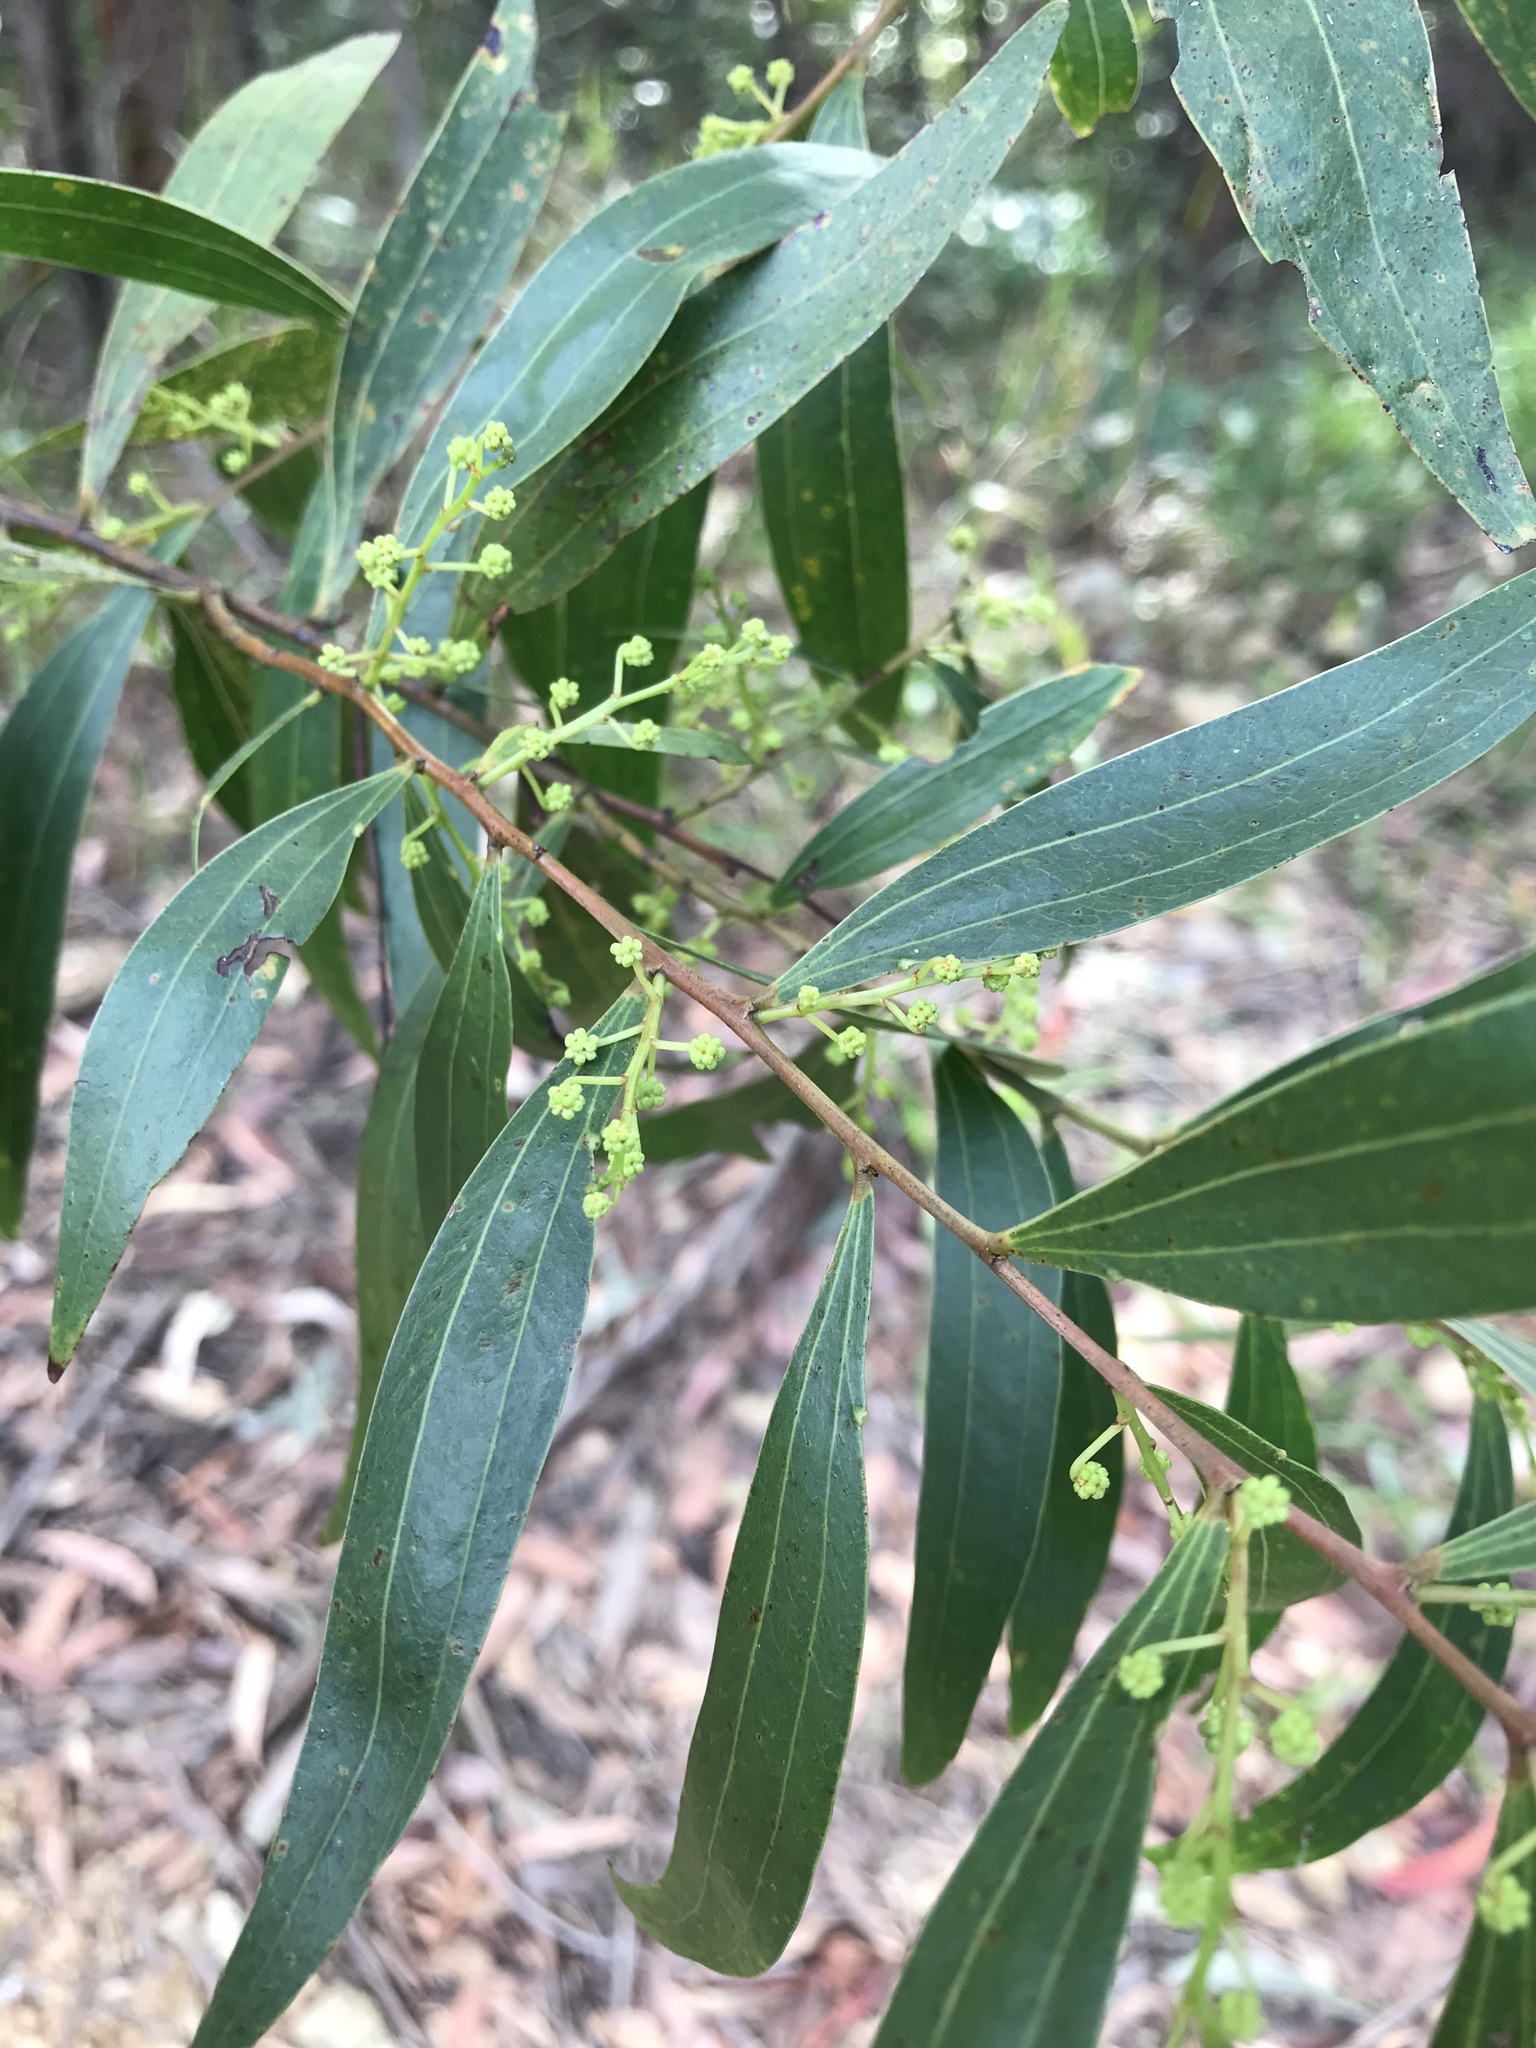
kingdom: Plantae
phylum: Tracheophyta
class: Magnoliopsida
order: Fabales
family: Fabaceae
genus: Acacia
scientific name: Acacia binervata
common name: Two-veined hickory
